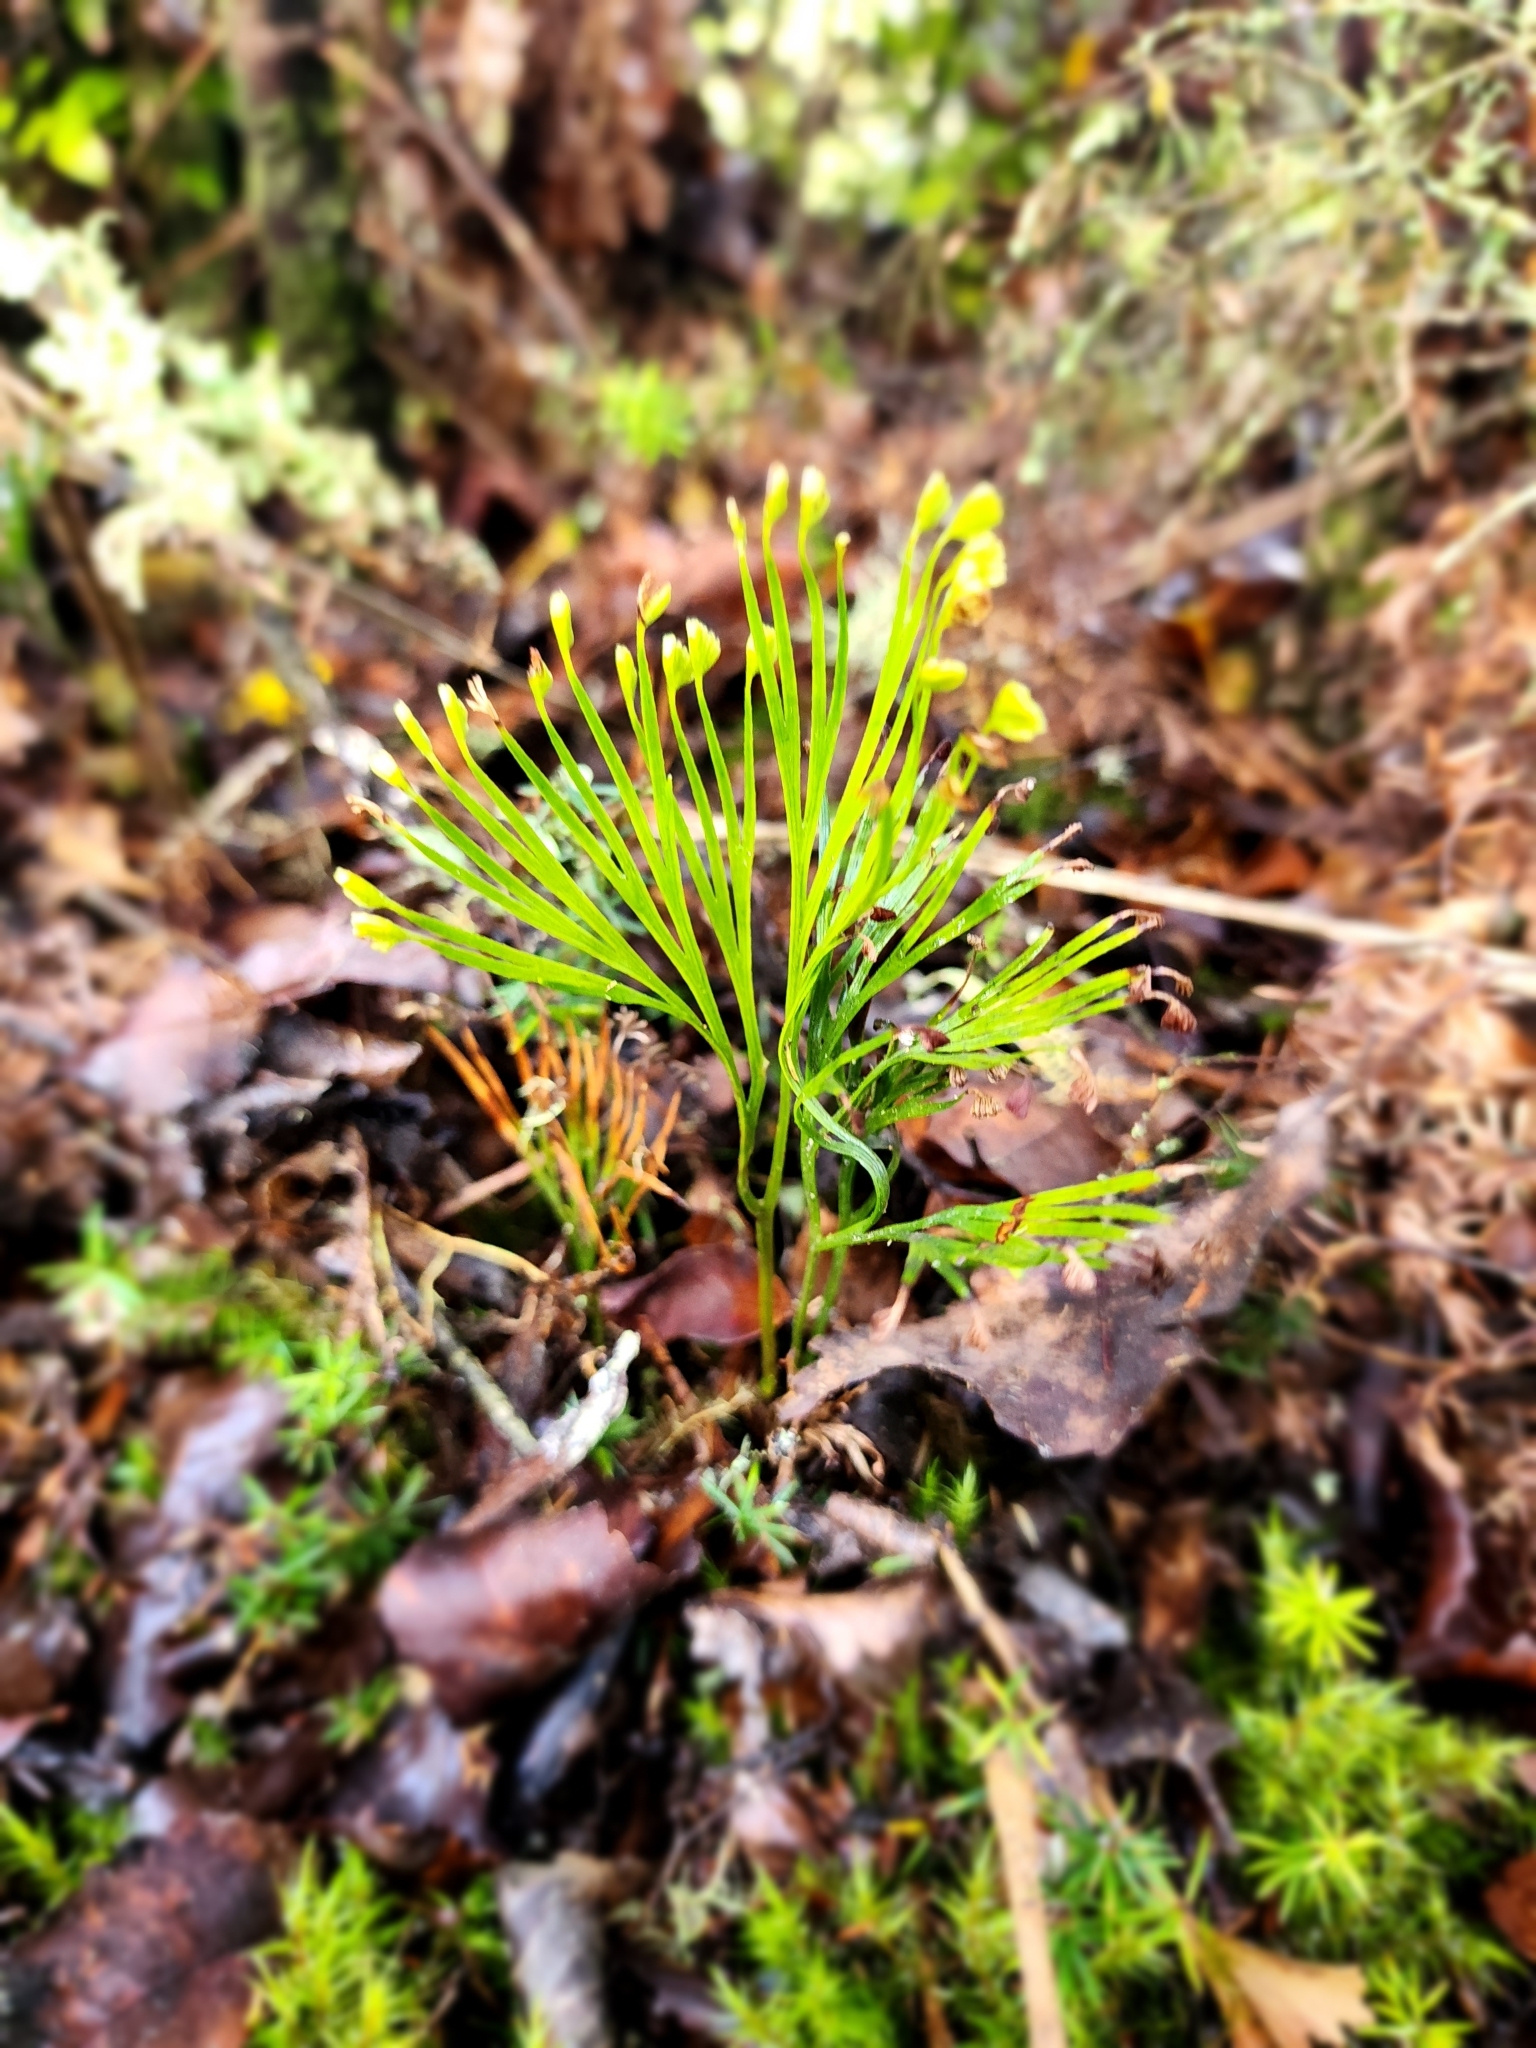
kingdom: Plantae
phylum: Tracheophyta
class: Polypodiopsida
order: Schizaeales
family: Schizaeaceae
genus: Schizaea
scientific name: Schizaea dichotoma
